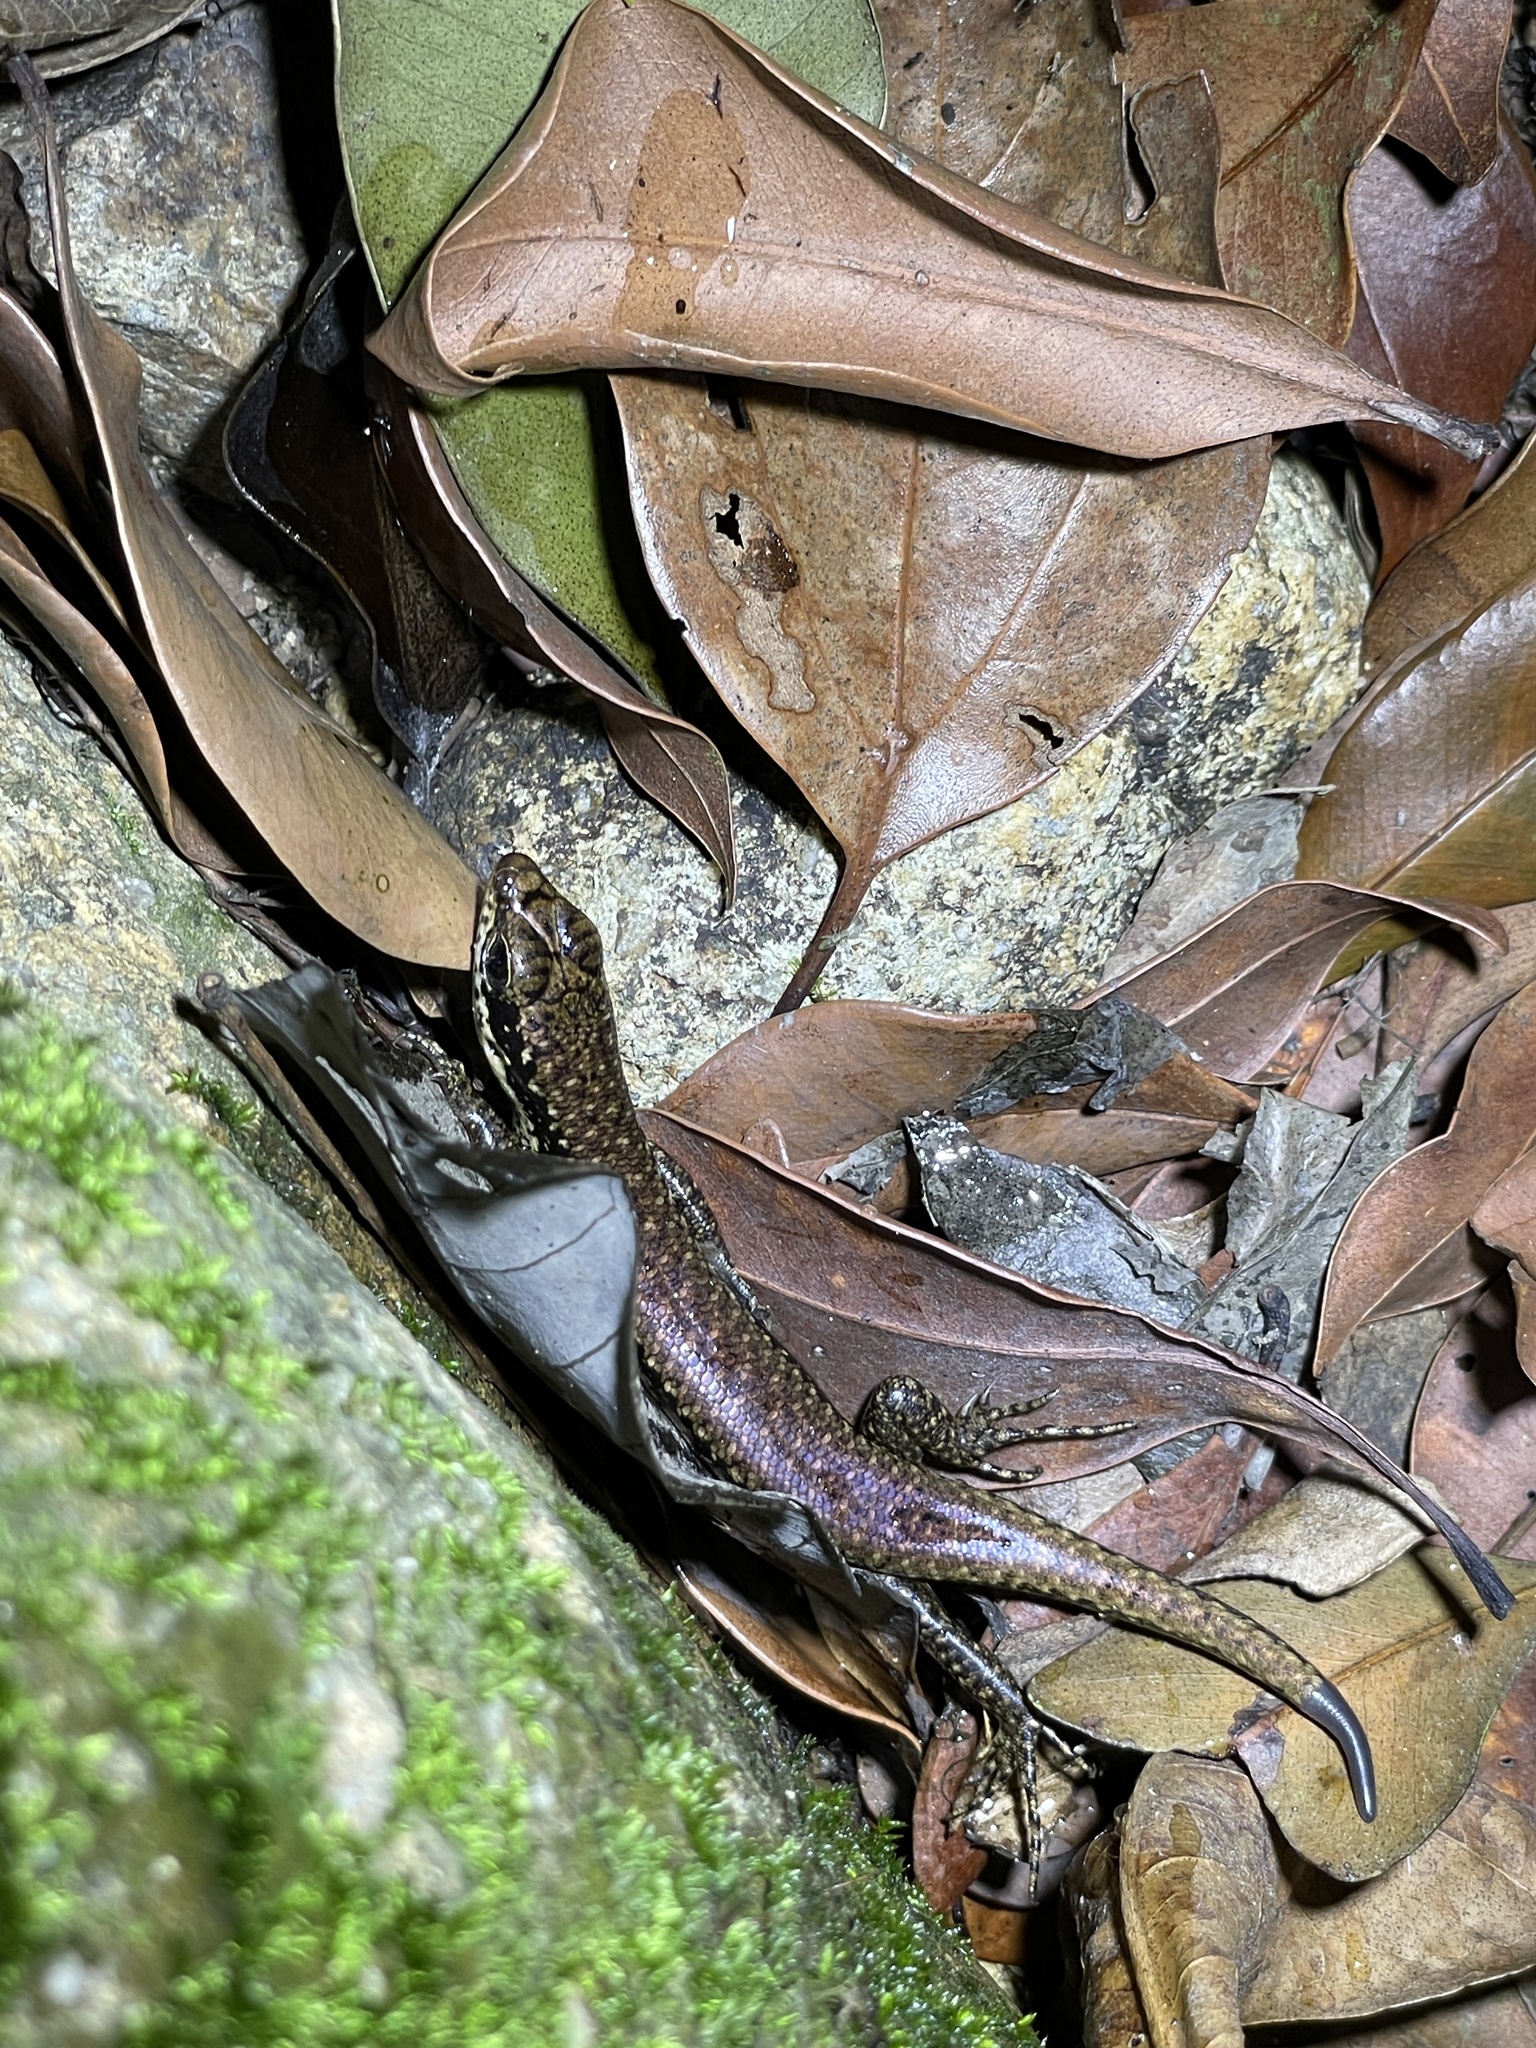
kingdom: Animalia
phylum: Chordata
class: Squamata
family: Scincidae
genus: Sphenomorphus
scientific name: Sphenomorphus incognitus
